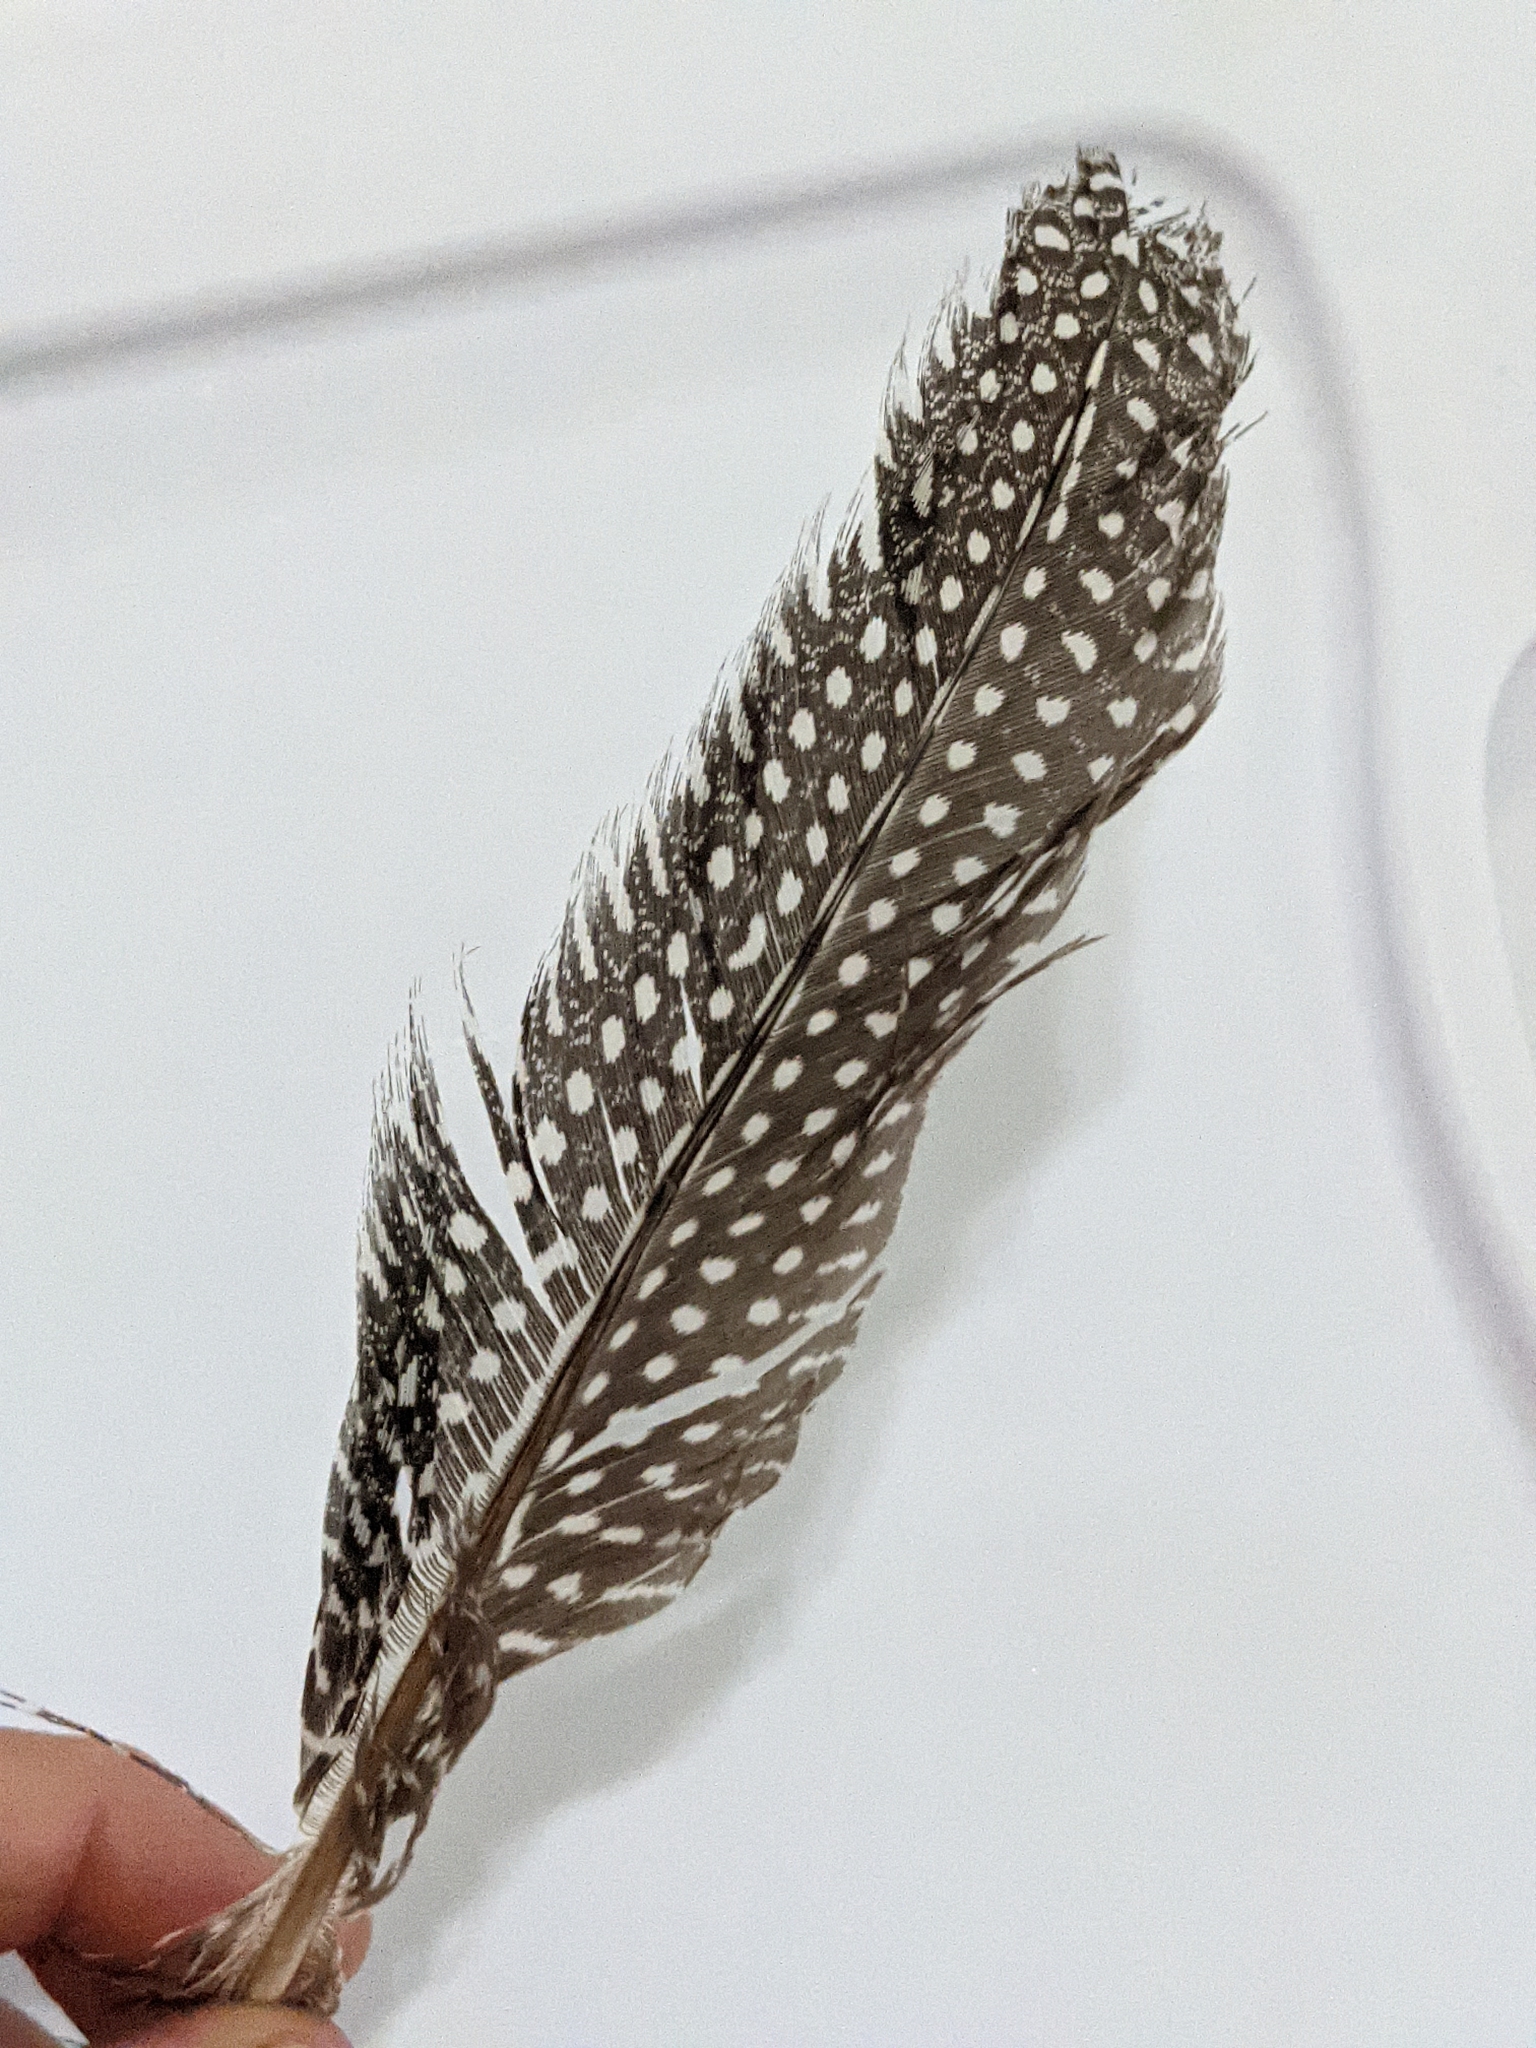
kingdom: Animalia
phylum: Chordata
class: Aves
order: Galliformes
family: Numididae
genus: Numida
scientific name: Numida meleagris
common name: Helmeted guineafowl
